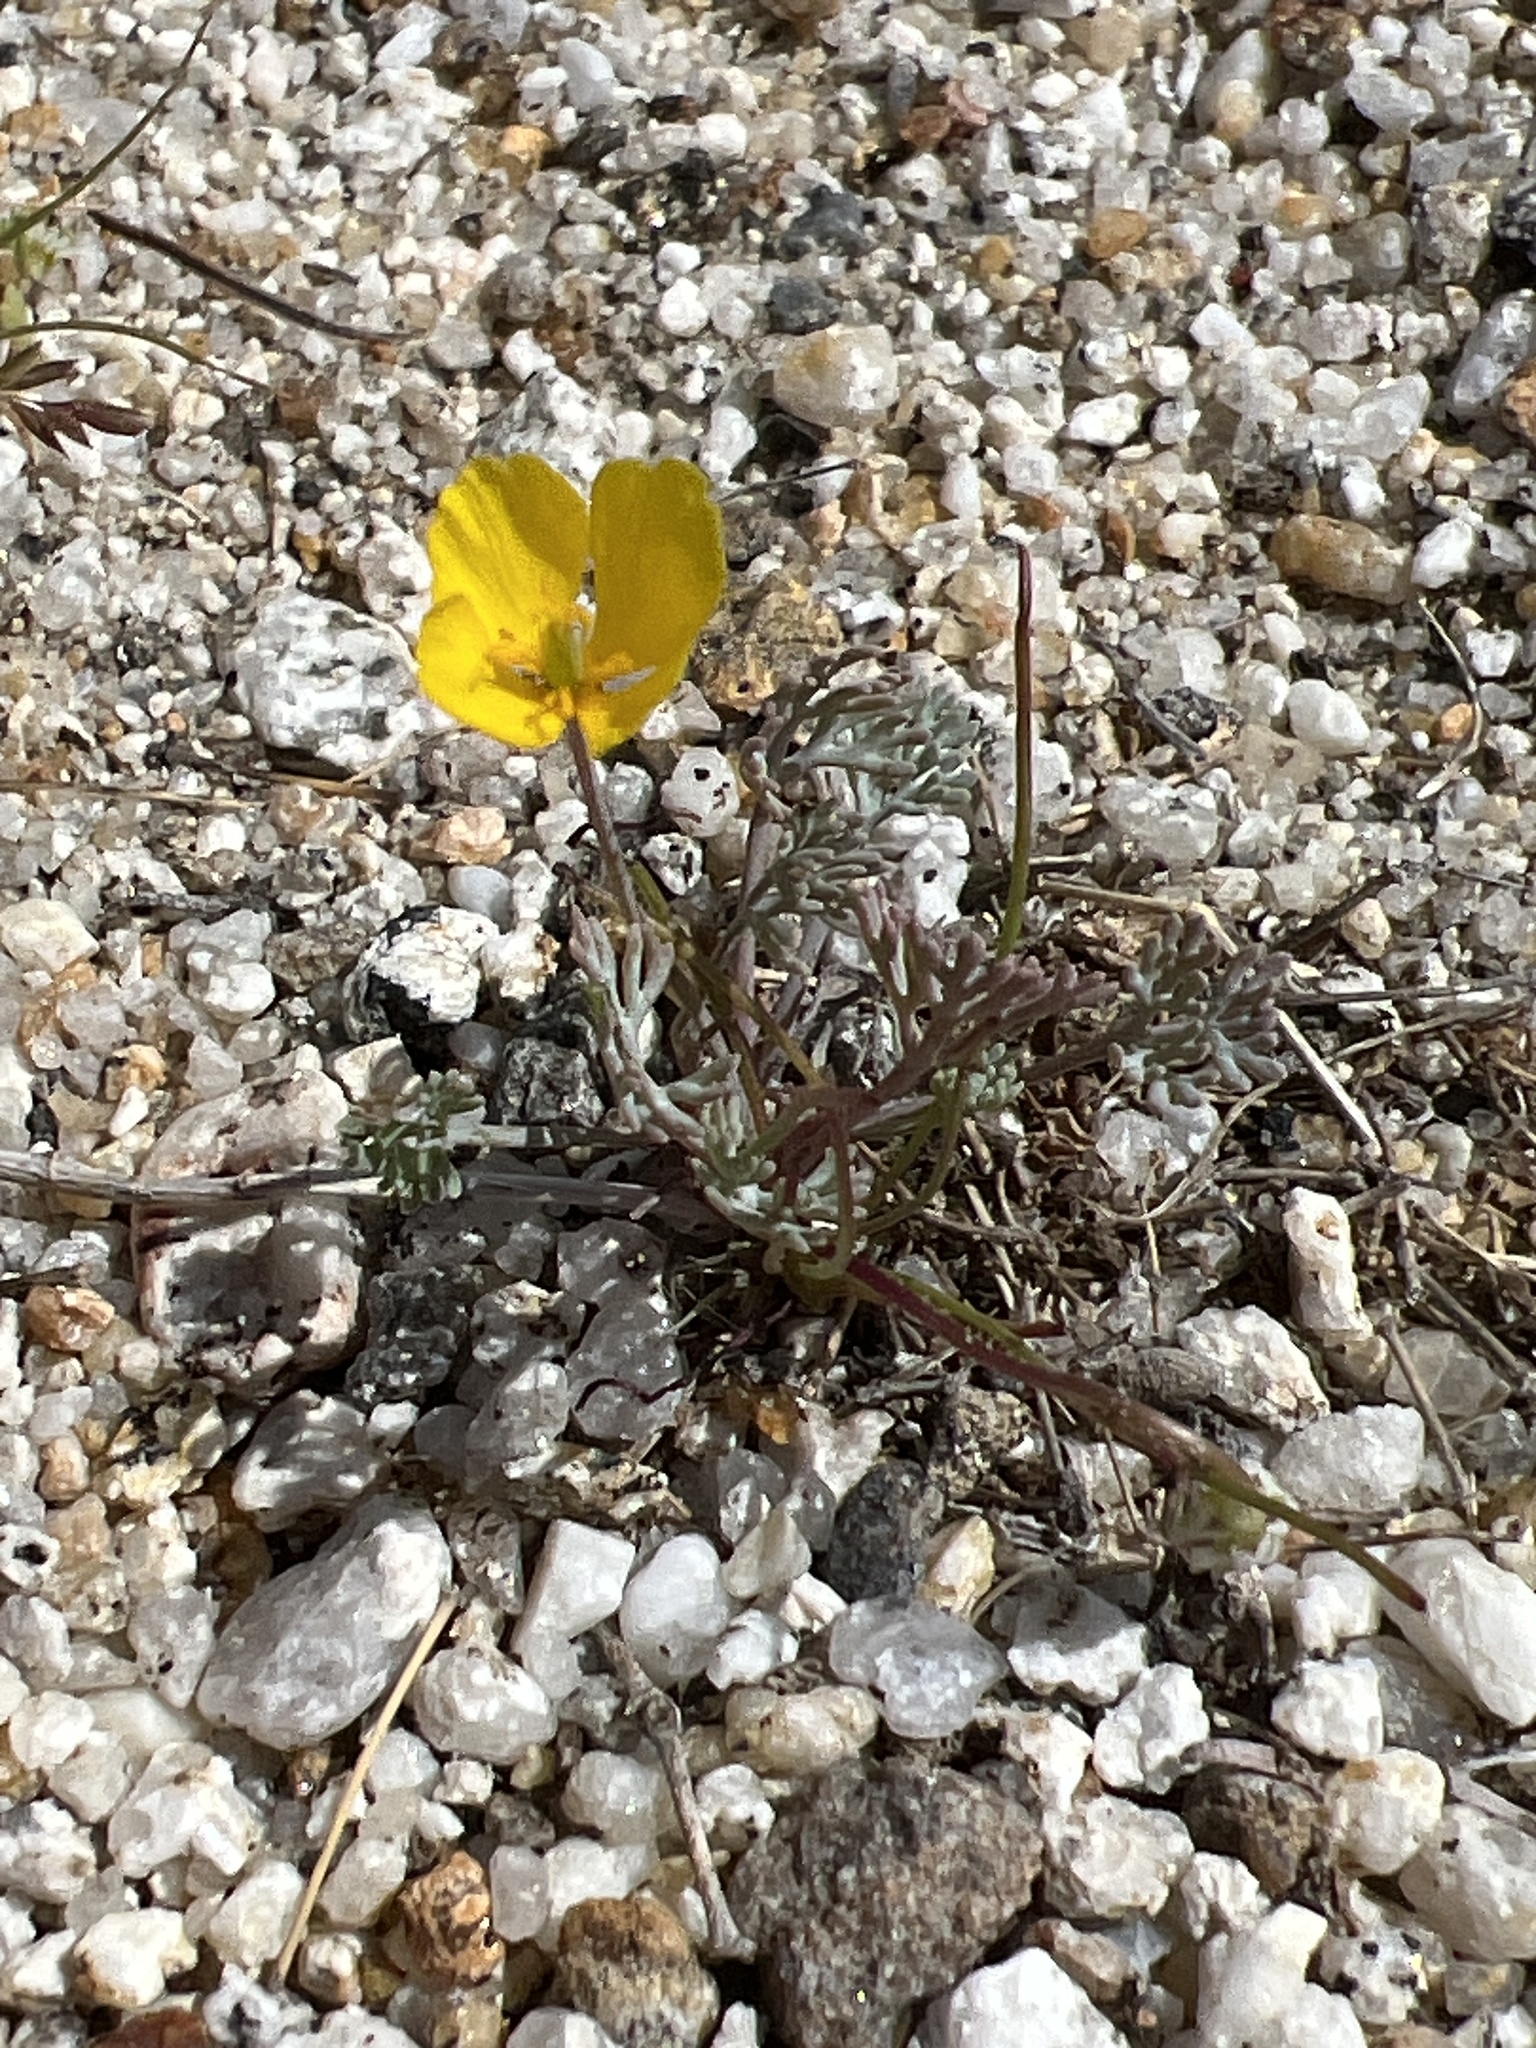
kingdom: Plantae
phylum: Tracheophyta
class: Magnoliopsida
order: Ranunculales
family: Papaveraceae
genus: Eschscholzia
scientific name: Eschscholzia minutiflora
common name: Small-flower california-poppy
